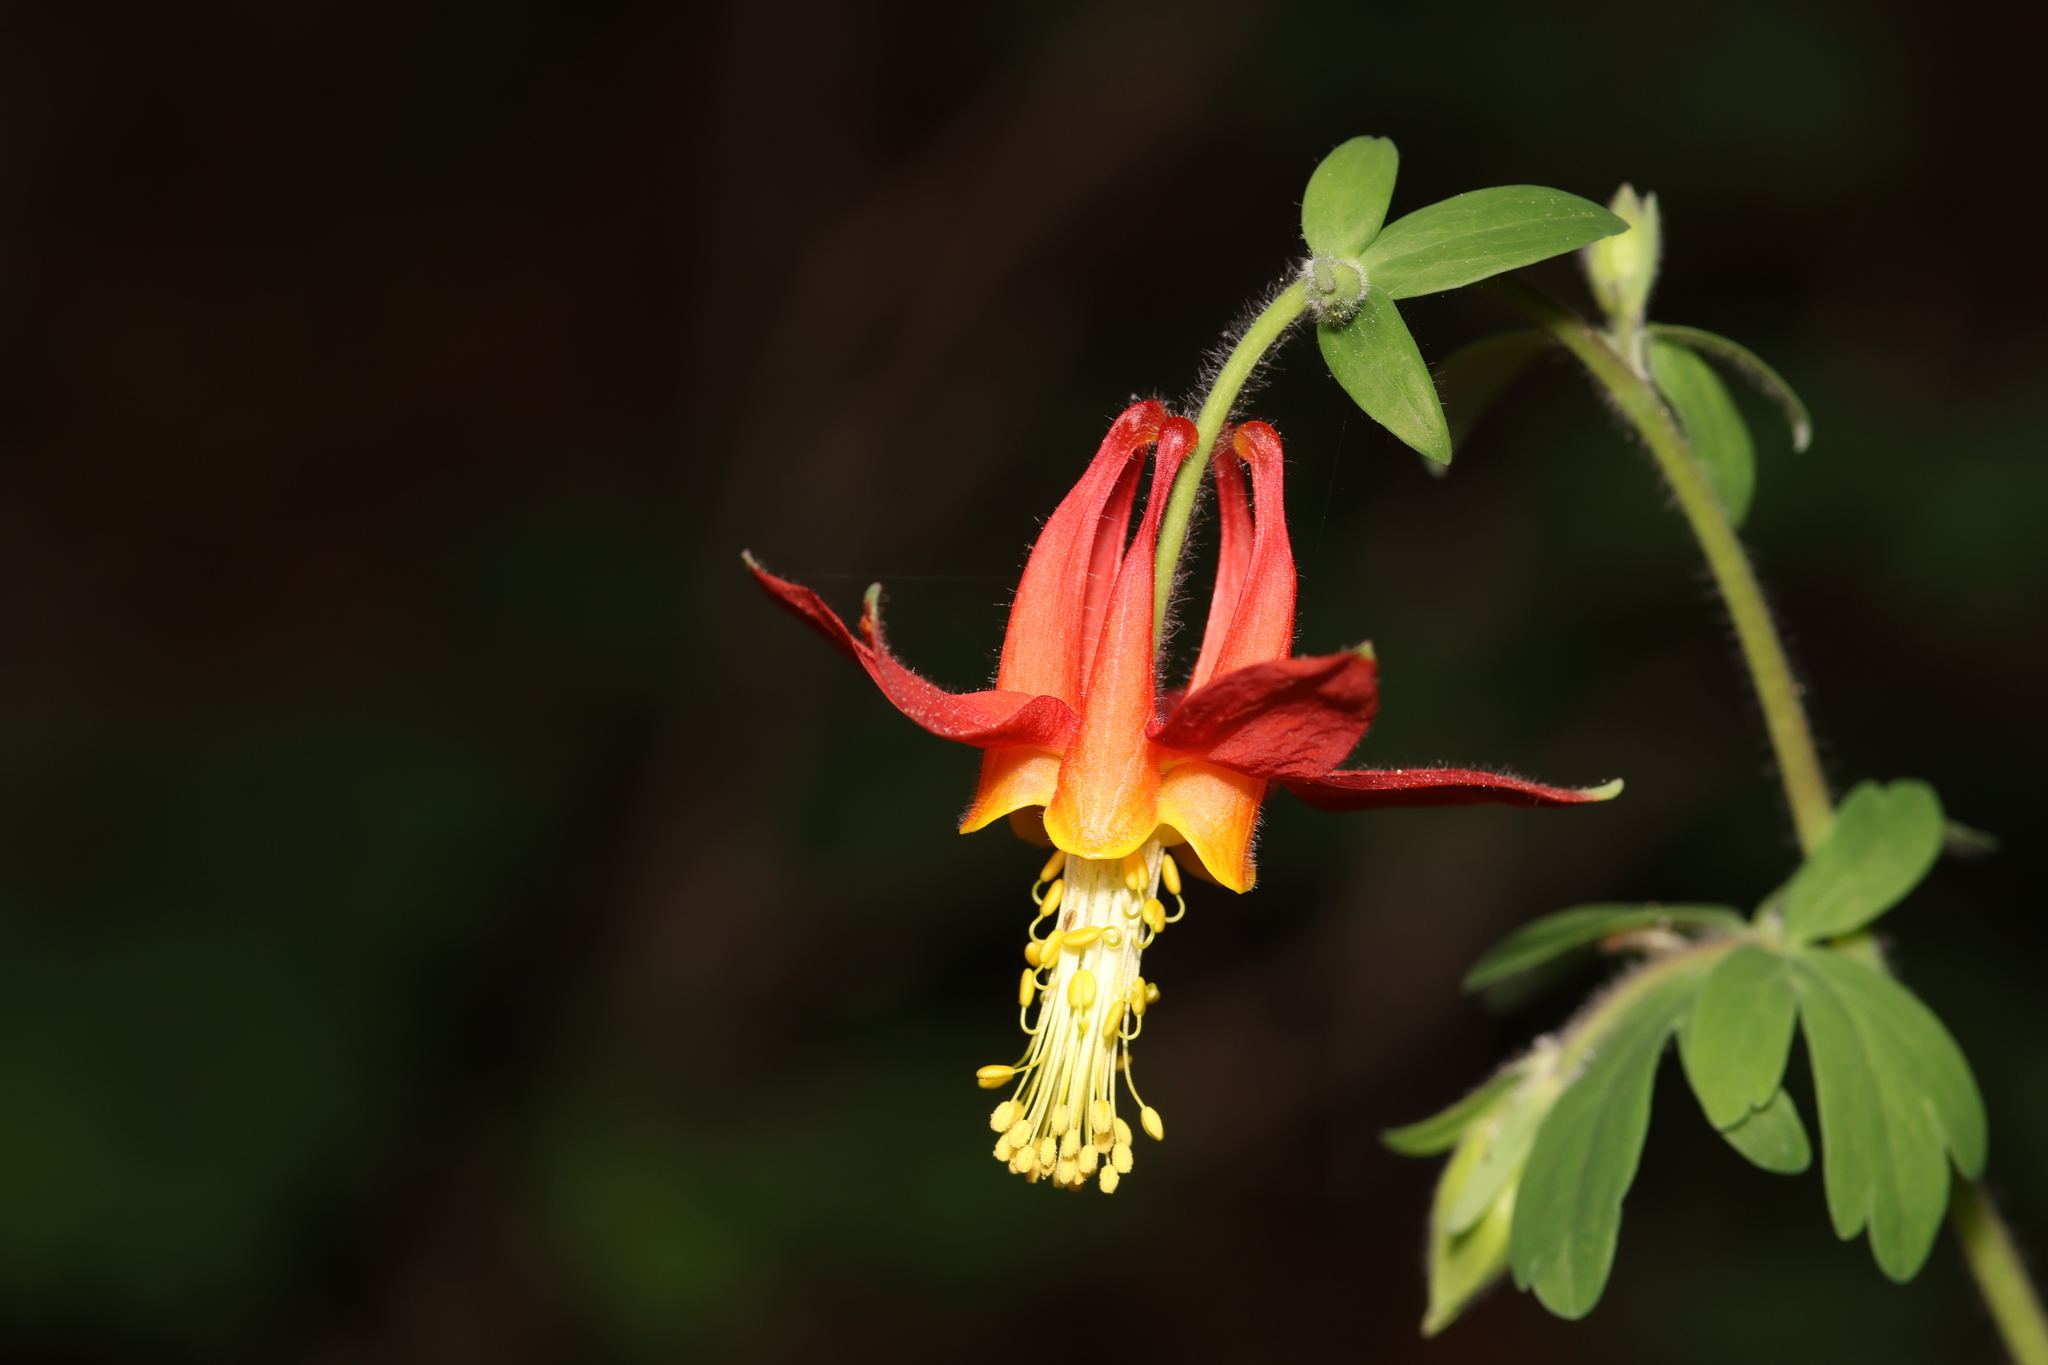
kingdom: Plantae
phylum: Tracheophyta
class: Magnoliopsida
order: Ranunculales
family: Ranunculaceae
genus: Aquilegia
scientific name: Aquilegia formosa
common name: Sitka columbine
